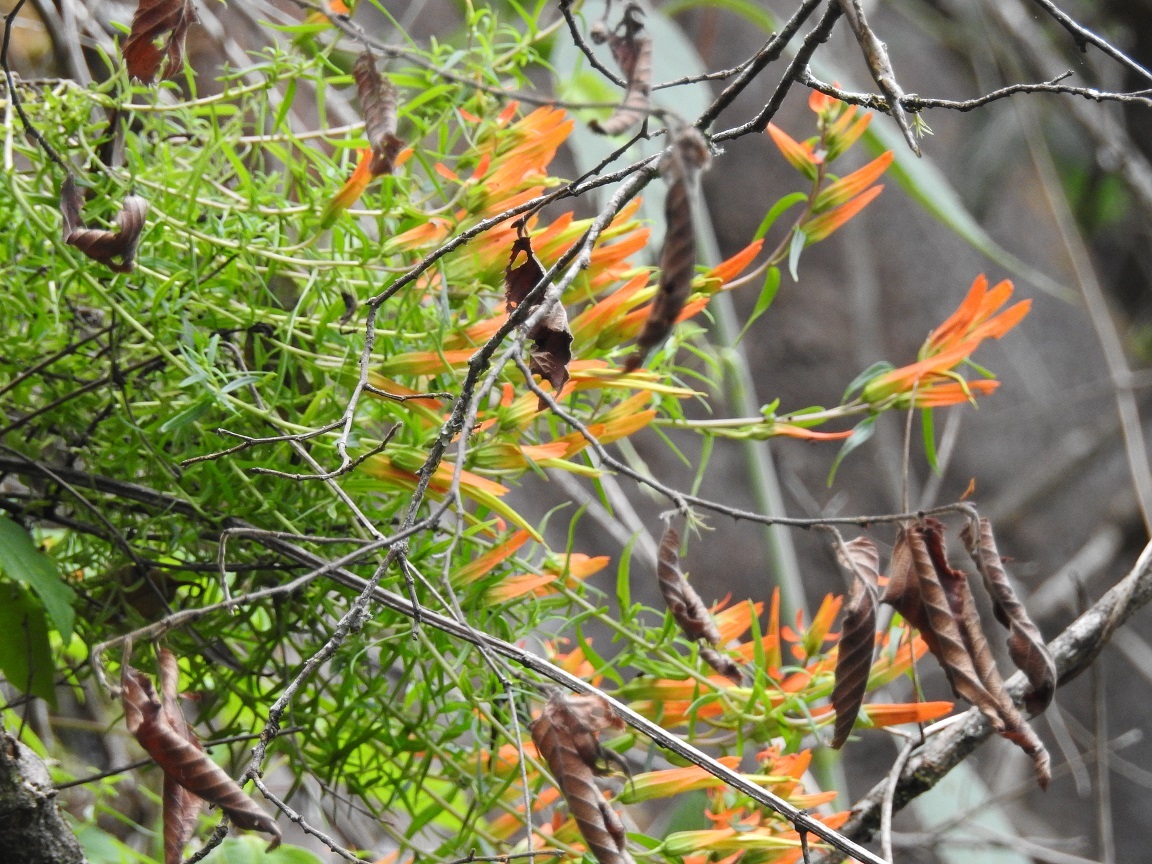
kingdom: Plantae
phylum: Tracheophyta
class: Magnoliopsida
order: Lamiales
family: Orobanchaceae
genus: Castilleja
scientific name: Castilleja integrifolia
